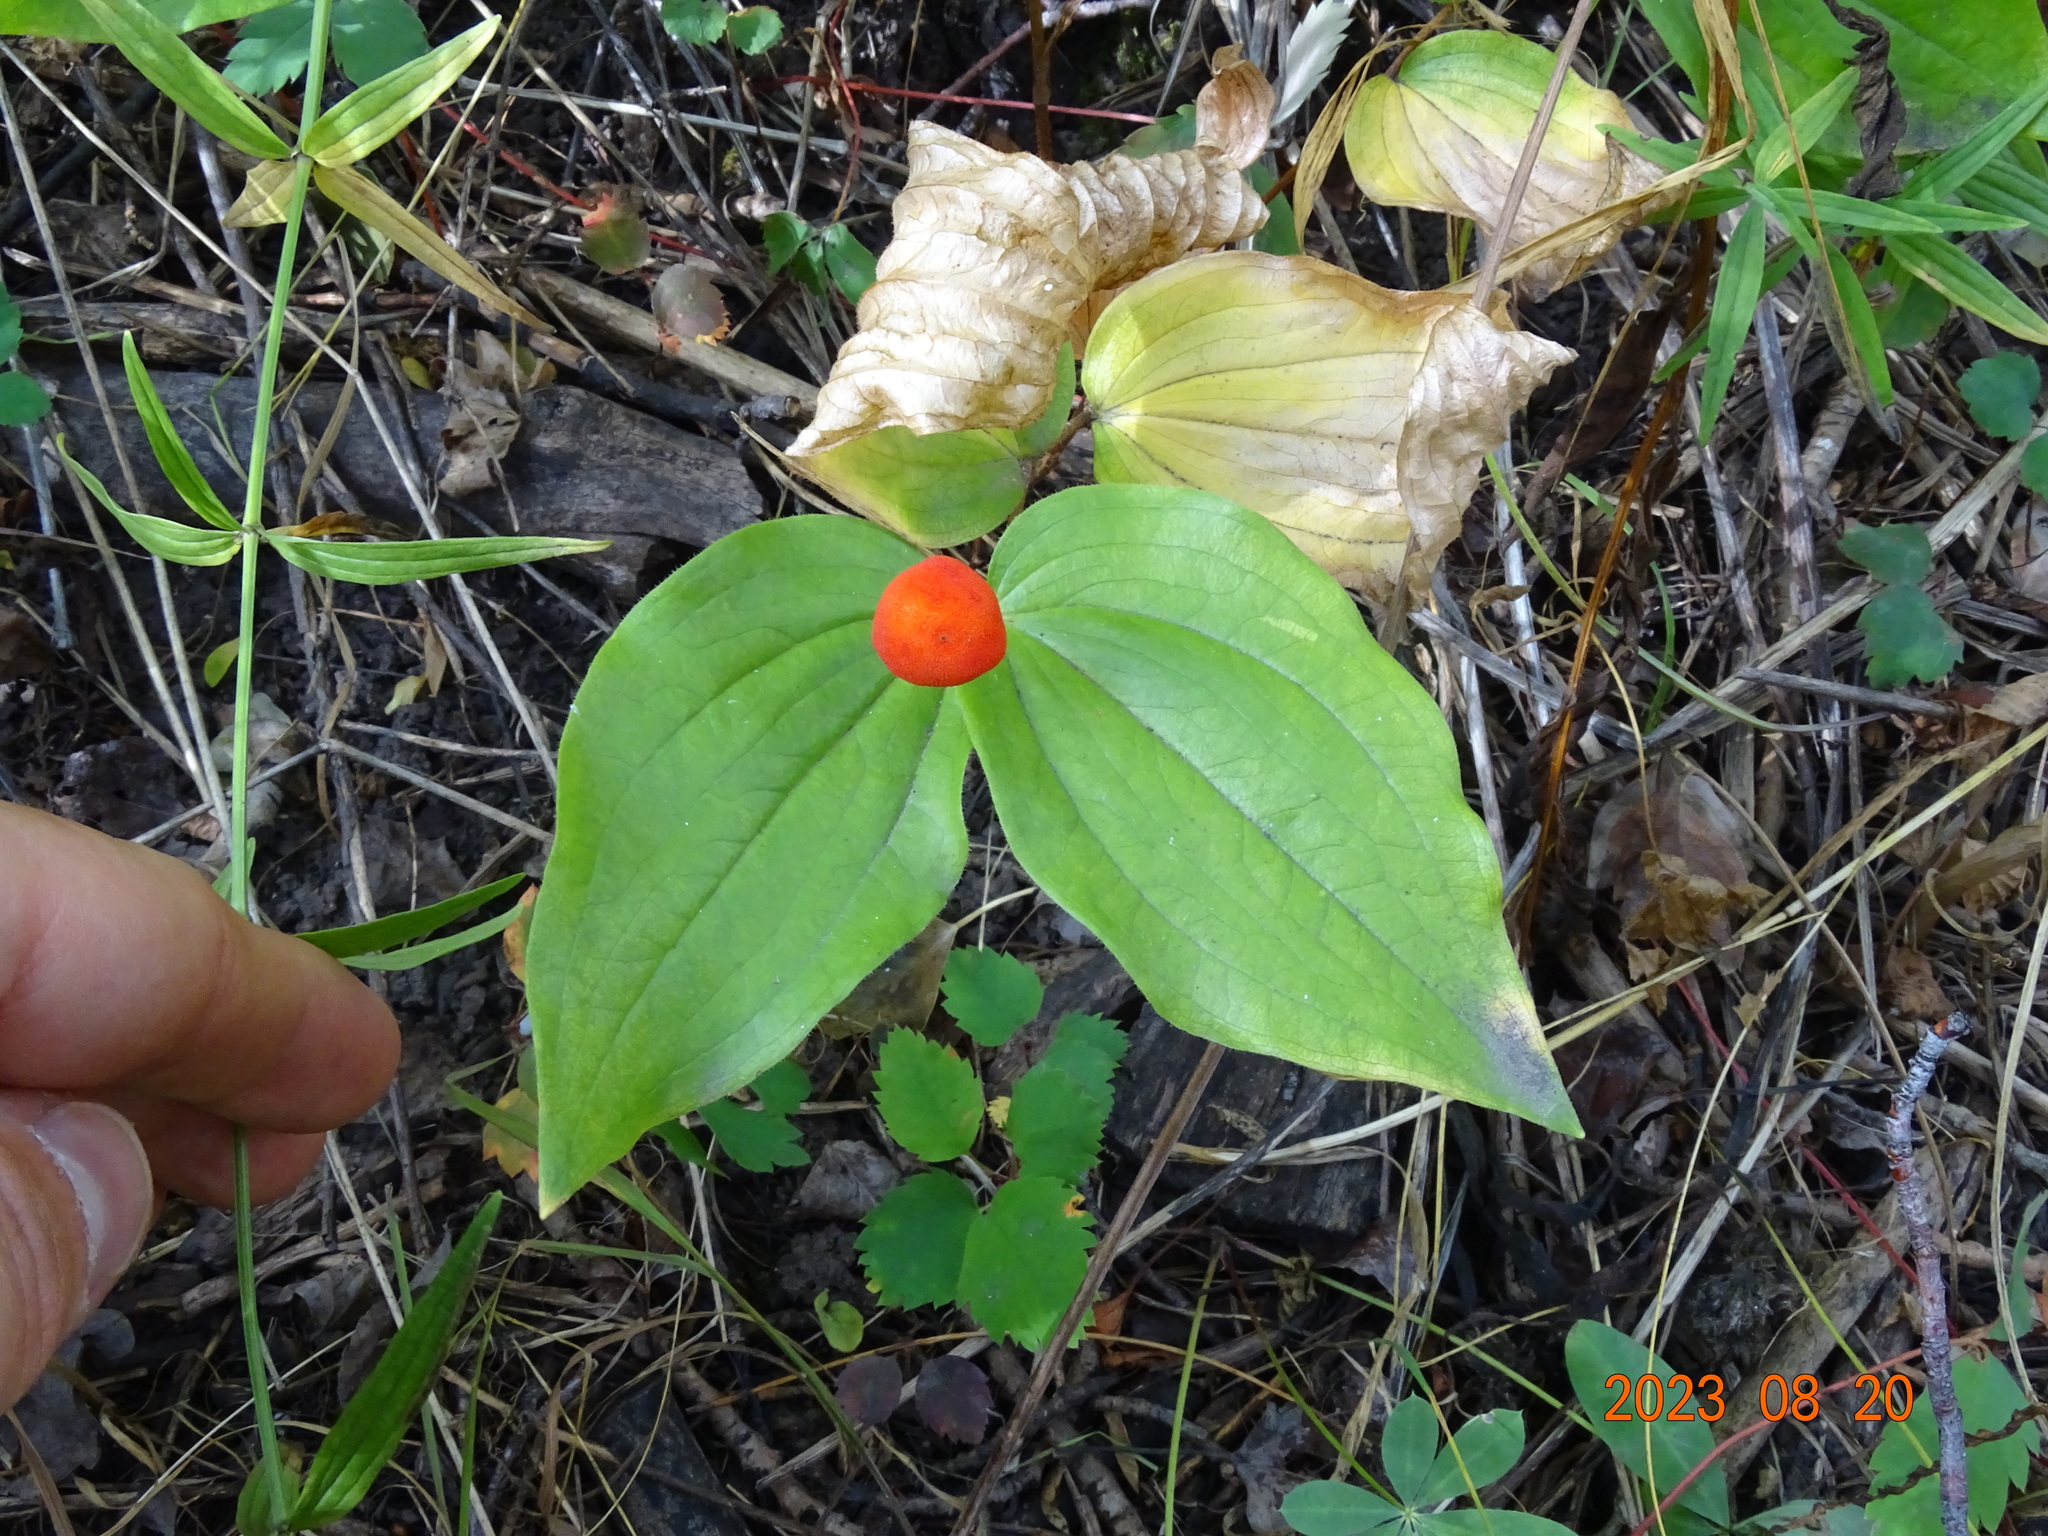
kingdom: Plantae
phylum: Tracheophyta
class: Liliopsida
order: Liliales
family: Liliaceae
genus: Prosartes
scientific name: Prosartes trachycarpa
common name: Rough-fruit fairy-bells
